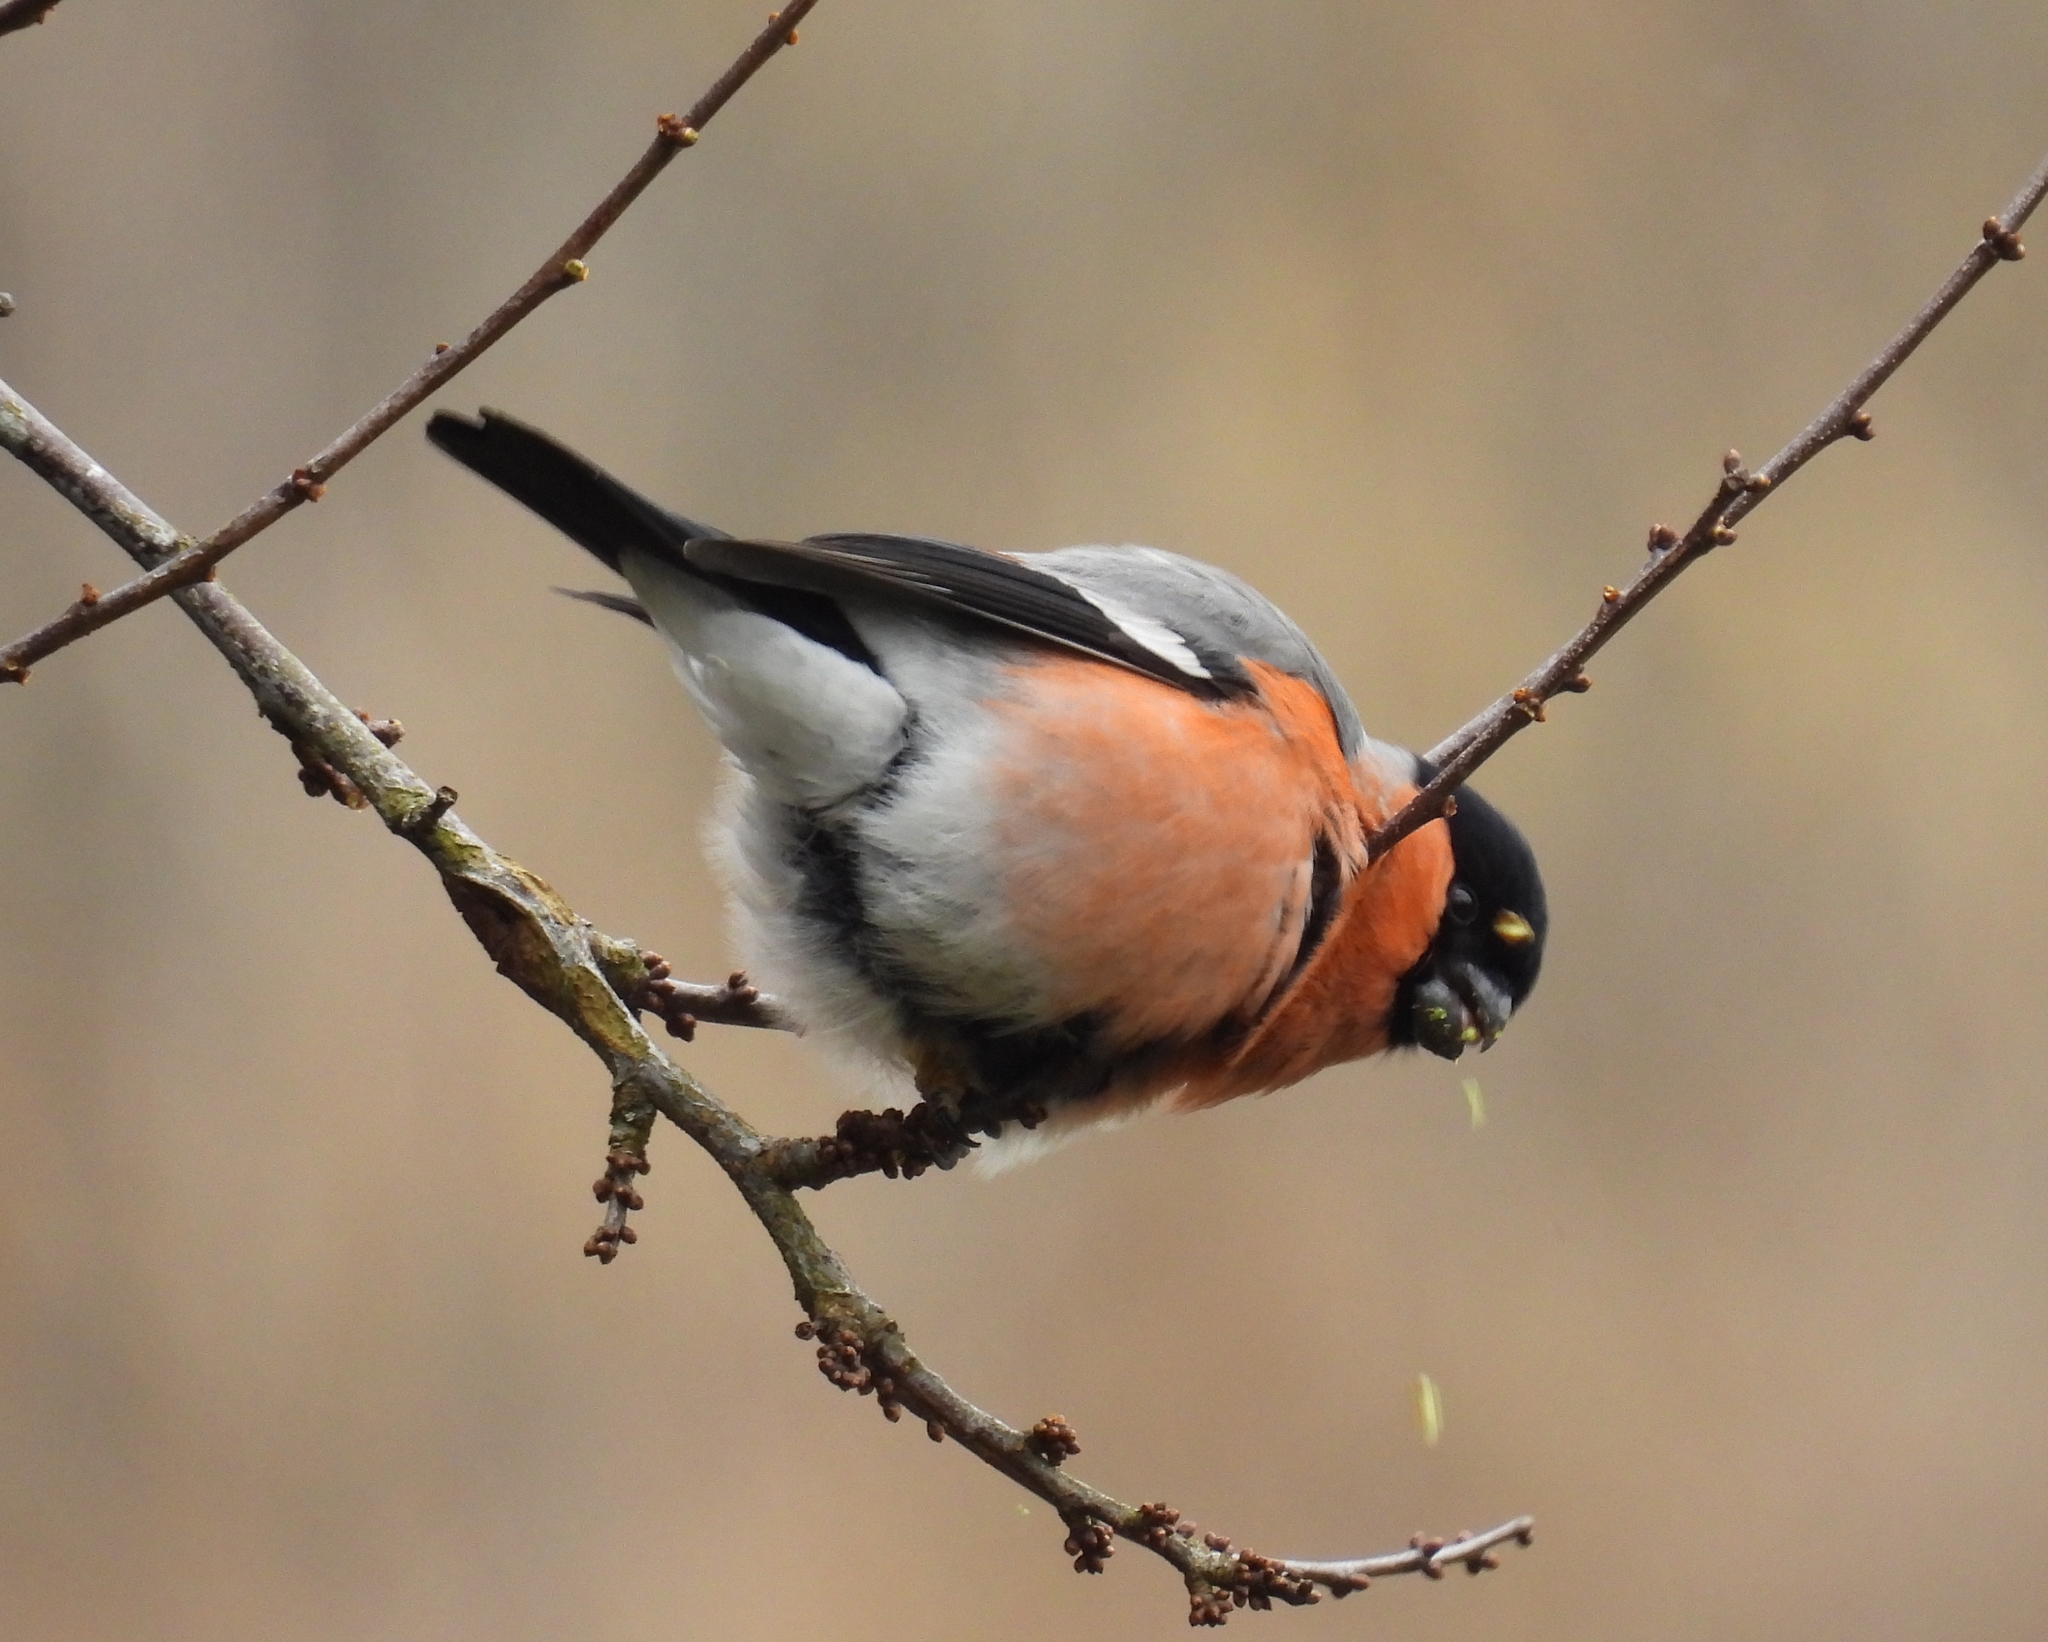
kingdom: Animalia
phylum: Chordata
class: Aves
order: Passeriformes
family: Fringillidae
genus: Pyrrhula
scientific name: Pyrrhula pyrrhula
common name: Eurasian bullfinch
